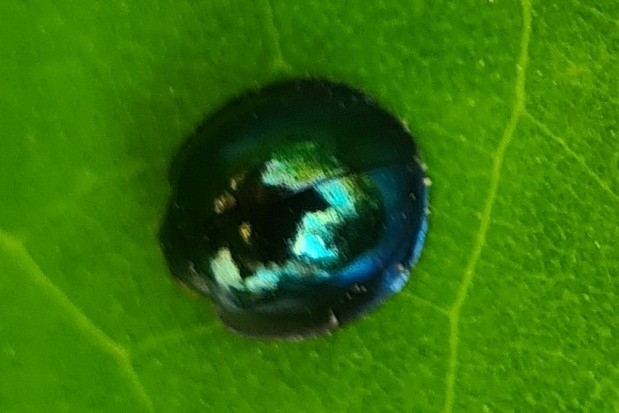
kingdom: Animalia
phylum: Arthropoda
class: Insecta
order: Coleoptera
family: Coccinellidae
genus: Halmus
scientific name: Halmus chalybeus
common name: Steel blue ladybird beetle
